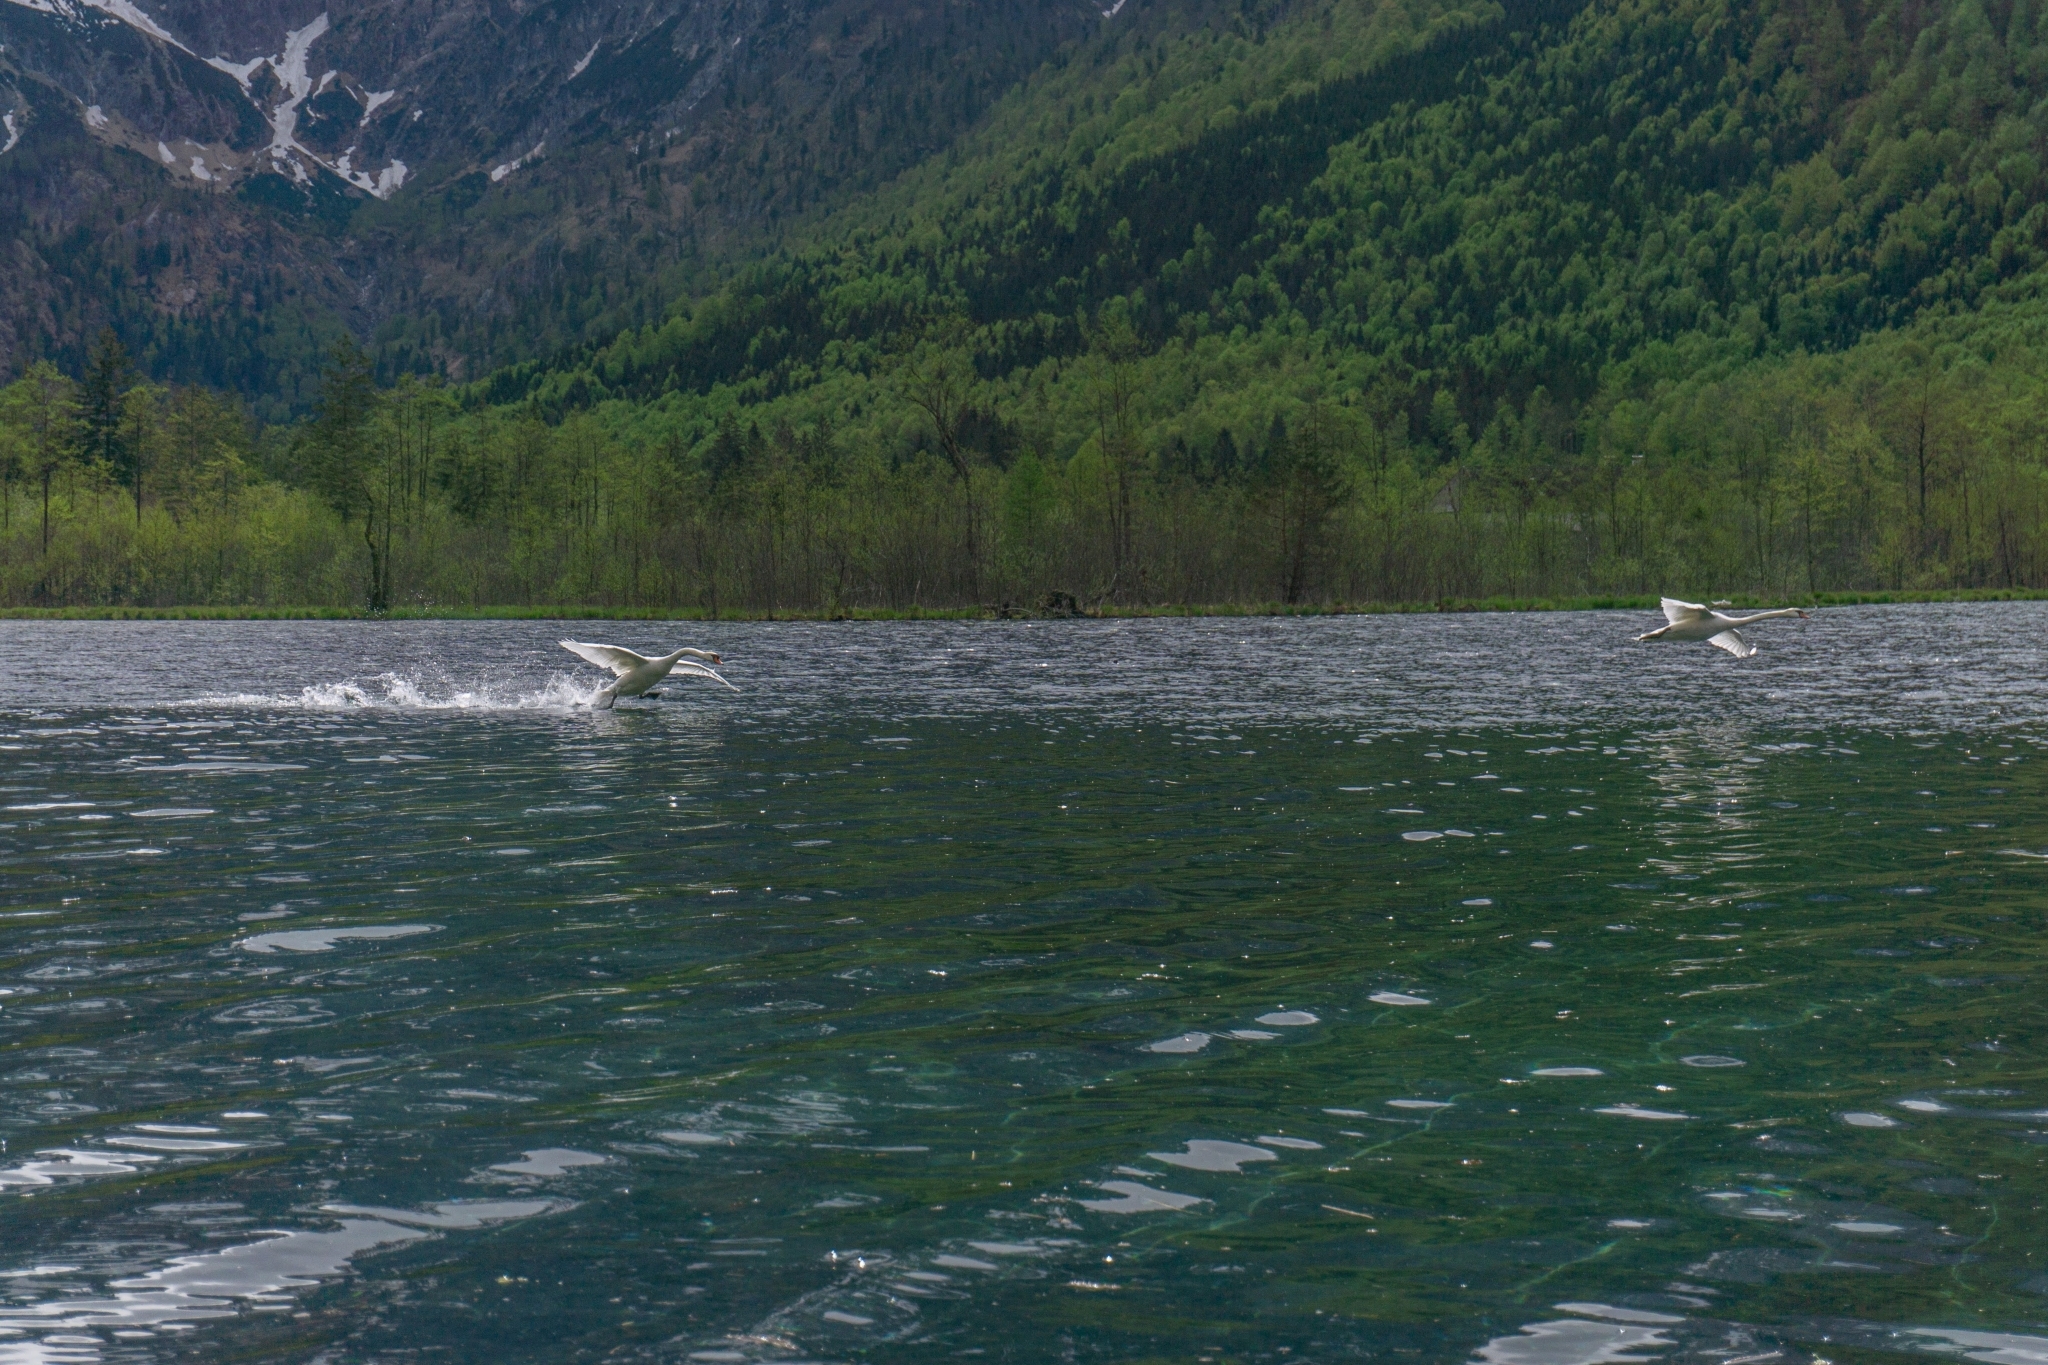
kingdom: Animalia
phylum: Chordata
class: Aves
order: Anseriformes
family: Anatidae
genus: Cygnus
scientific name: Cygnus olor
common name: Mute swan
